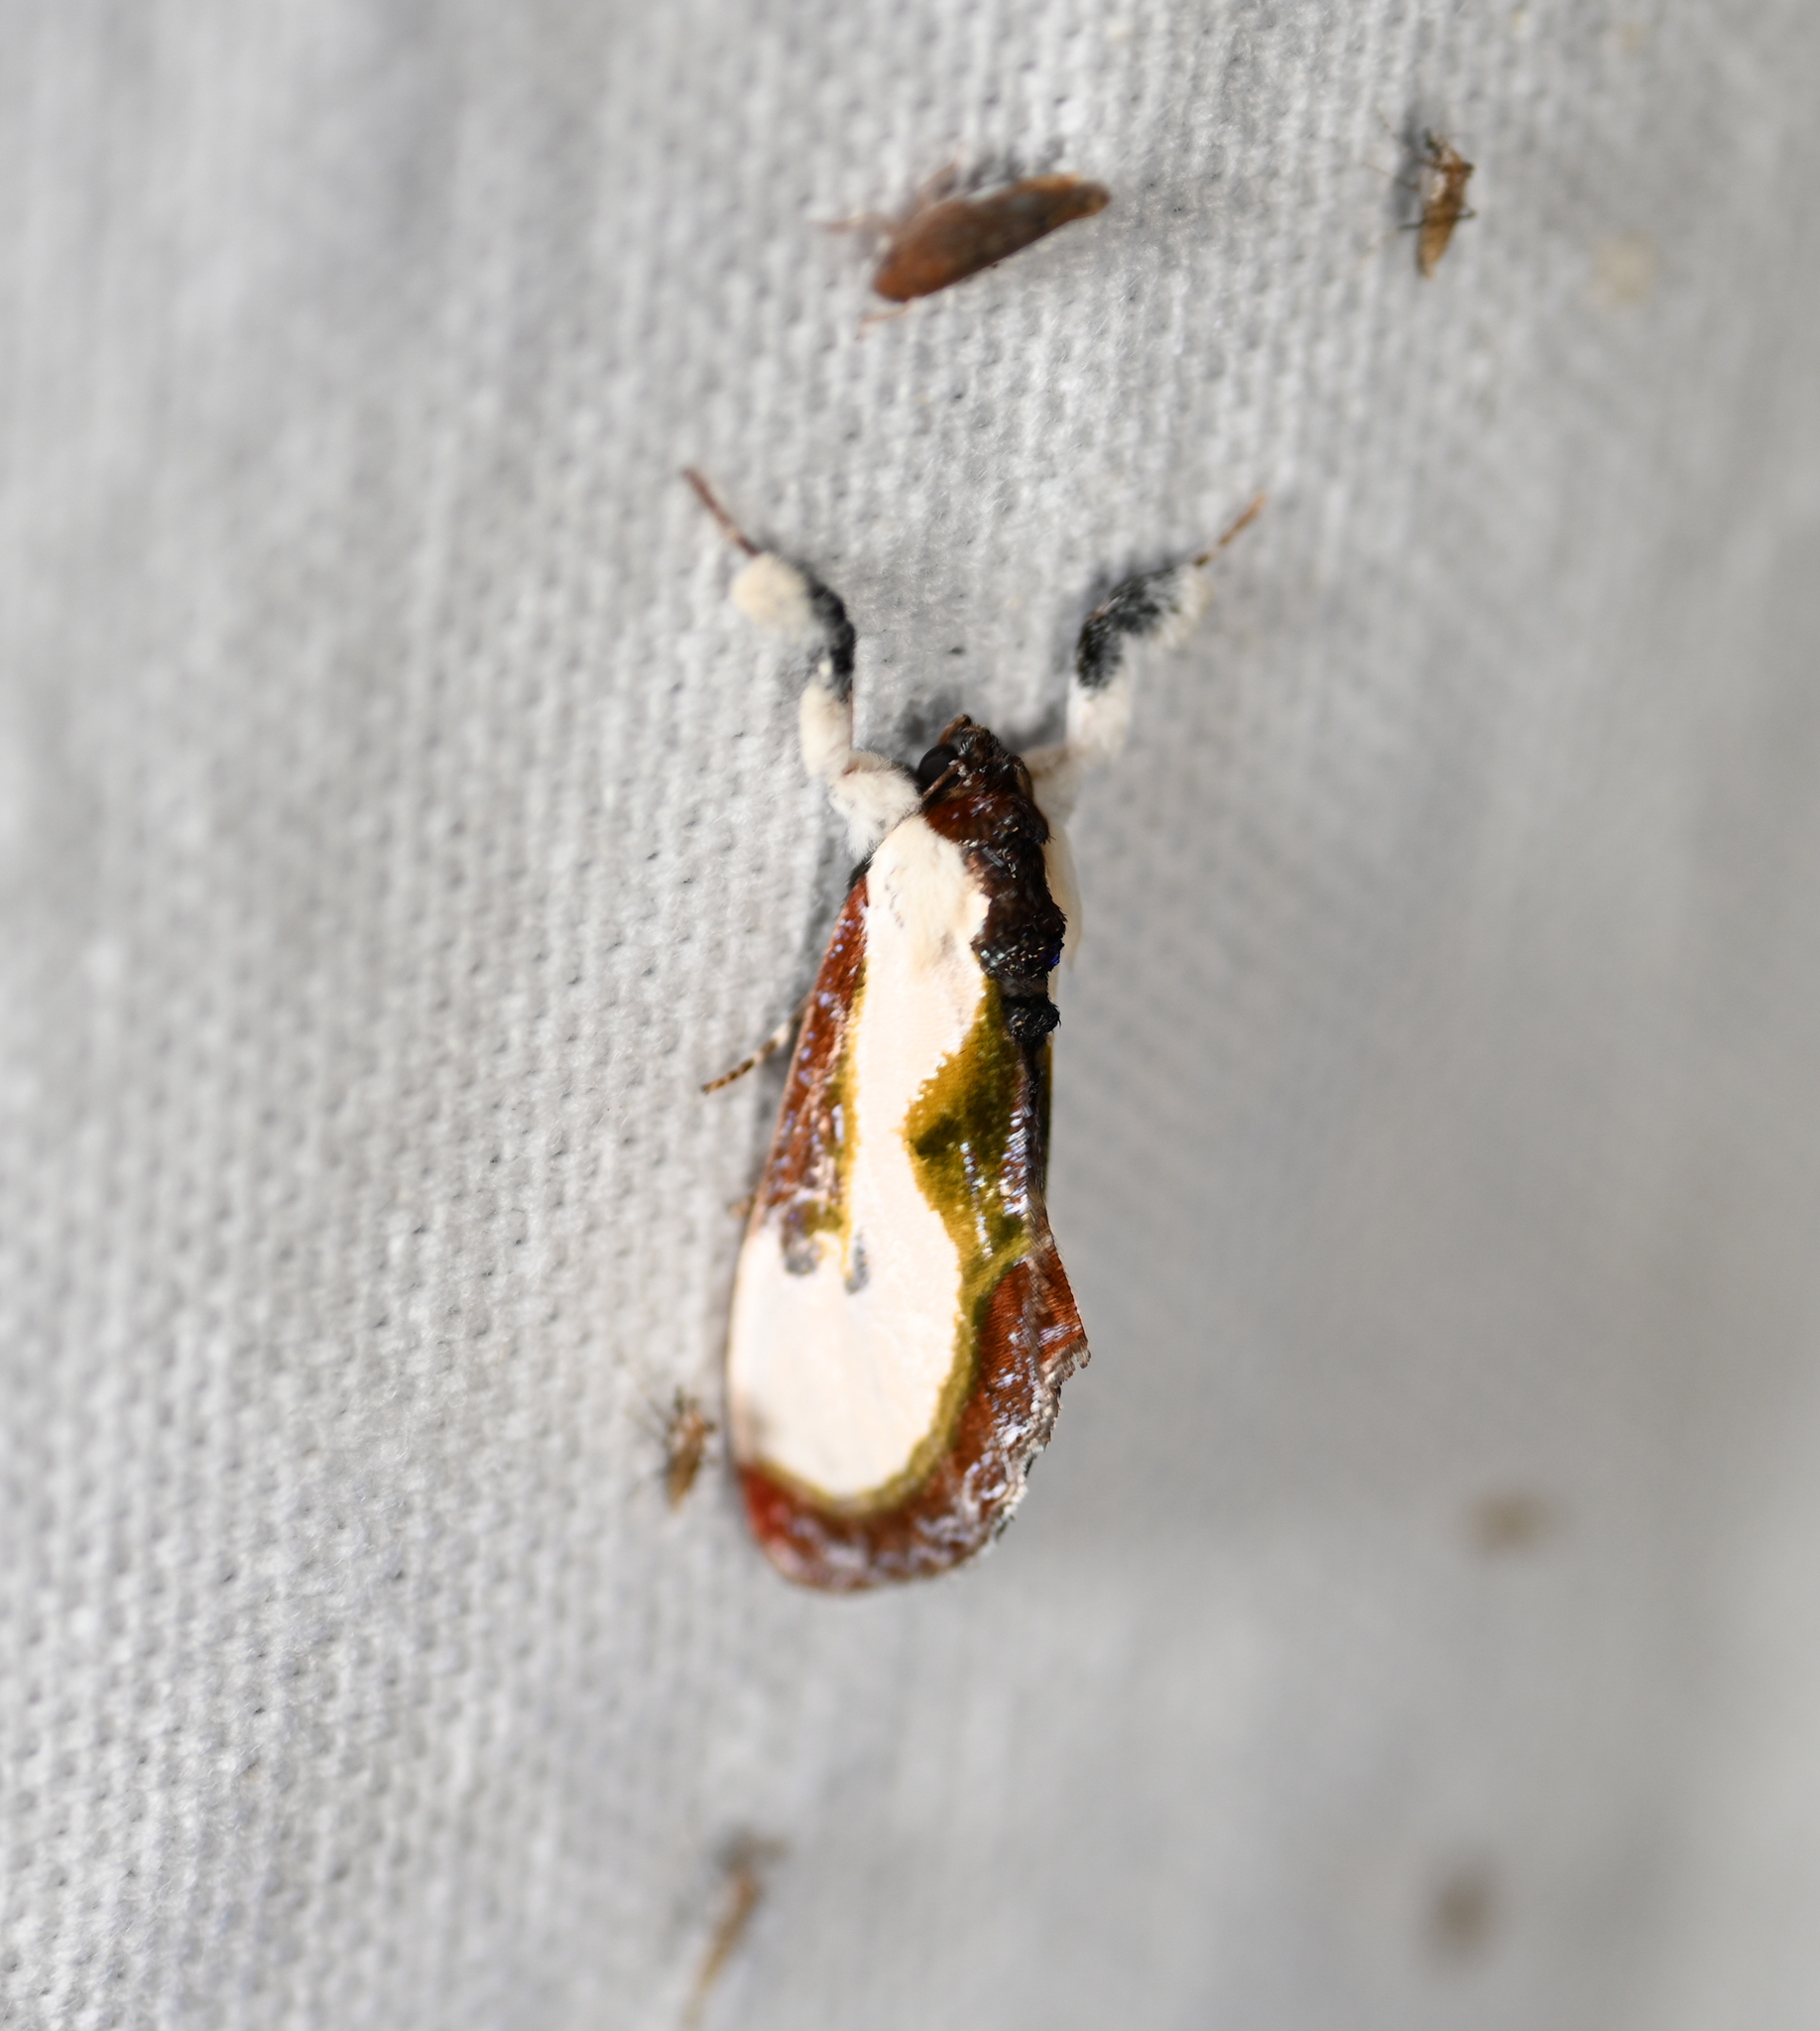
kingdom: Animalia
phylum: Arthropoda
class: Insecta
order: Lepidoptera
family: Noctuidae
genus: Eudryas
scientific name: Eudryas grata
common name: Beautiful wood-nymph
